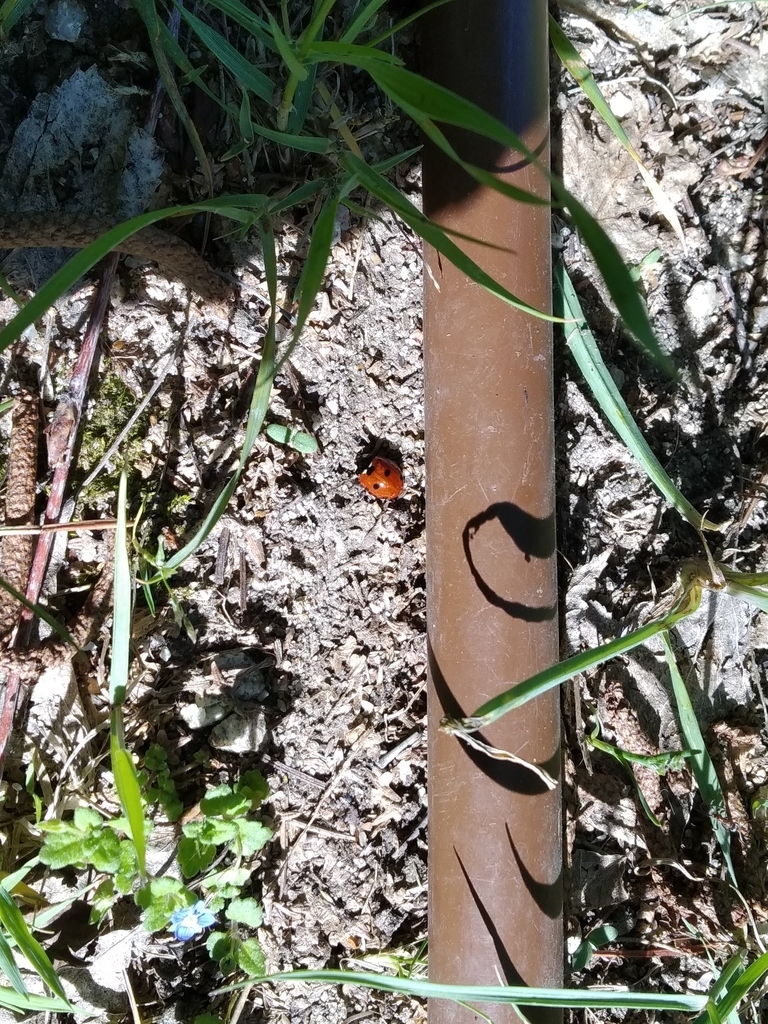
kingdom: Animalia
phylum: Arthropoda
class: Insecta
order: Coleoptera
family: Coccinellidae
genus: Coccinella
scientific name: Coccinella septempunctata
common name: Sevenspotted lady beetle
